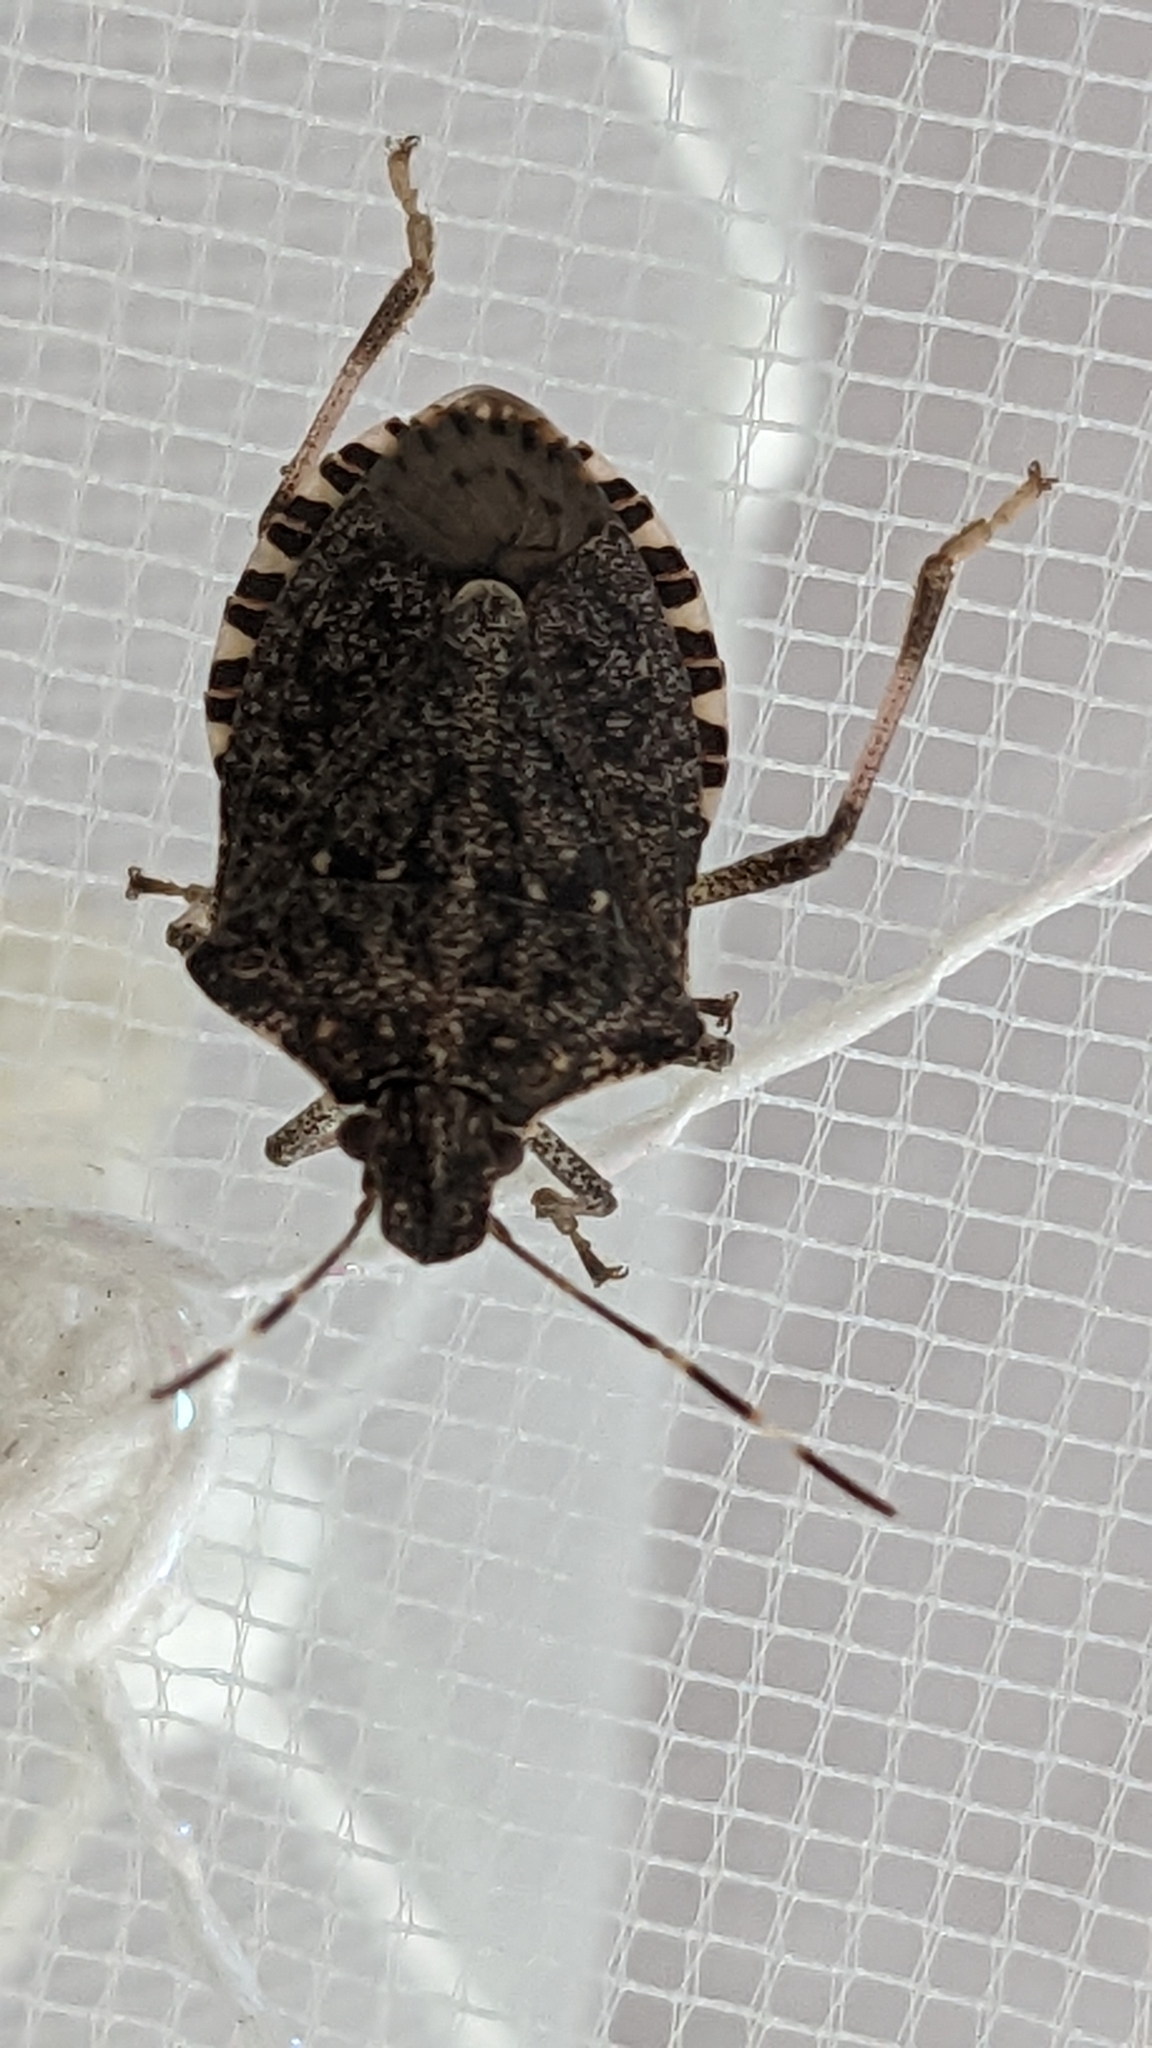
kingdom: Animalia
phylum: Arthropoda
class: Insecta
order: Hemiptera
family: Pentatomidae
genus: Halyomorpha
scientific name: Halyomorpha halys
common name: Brown marmorated stink bug
